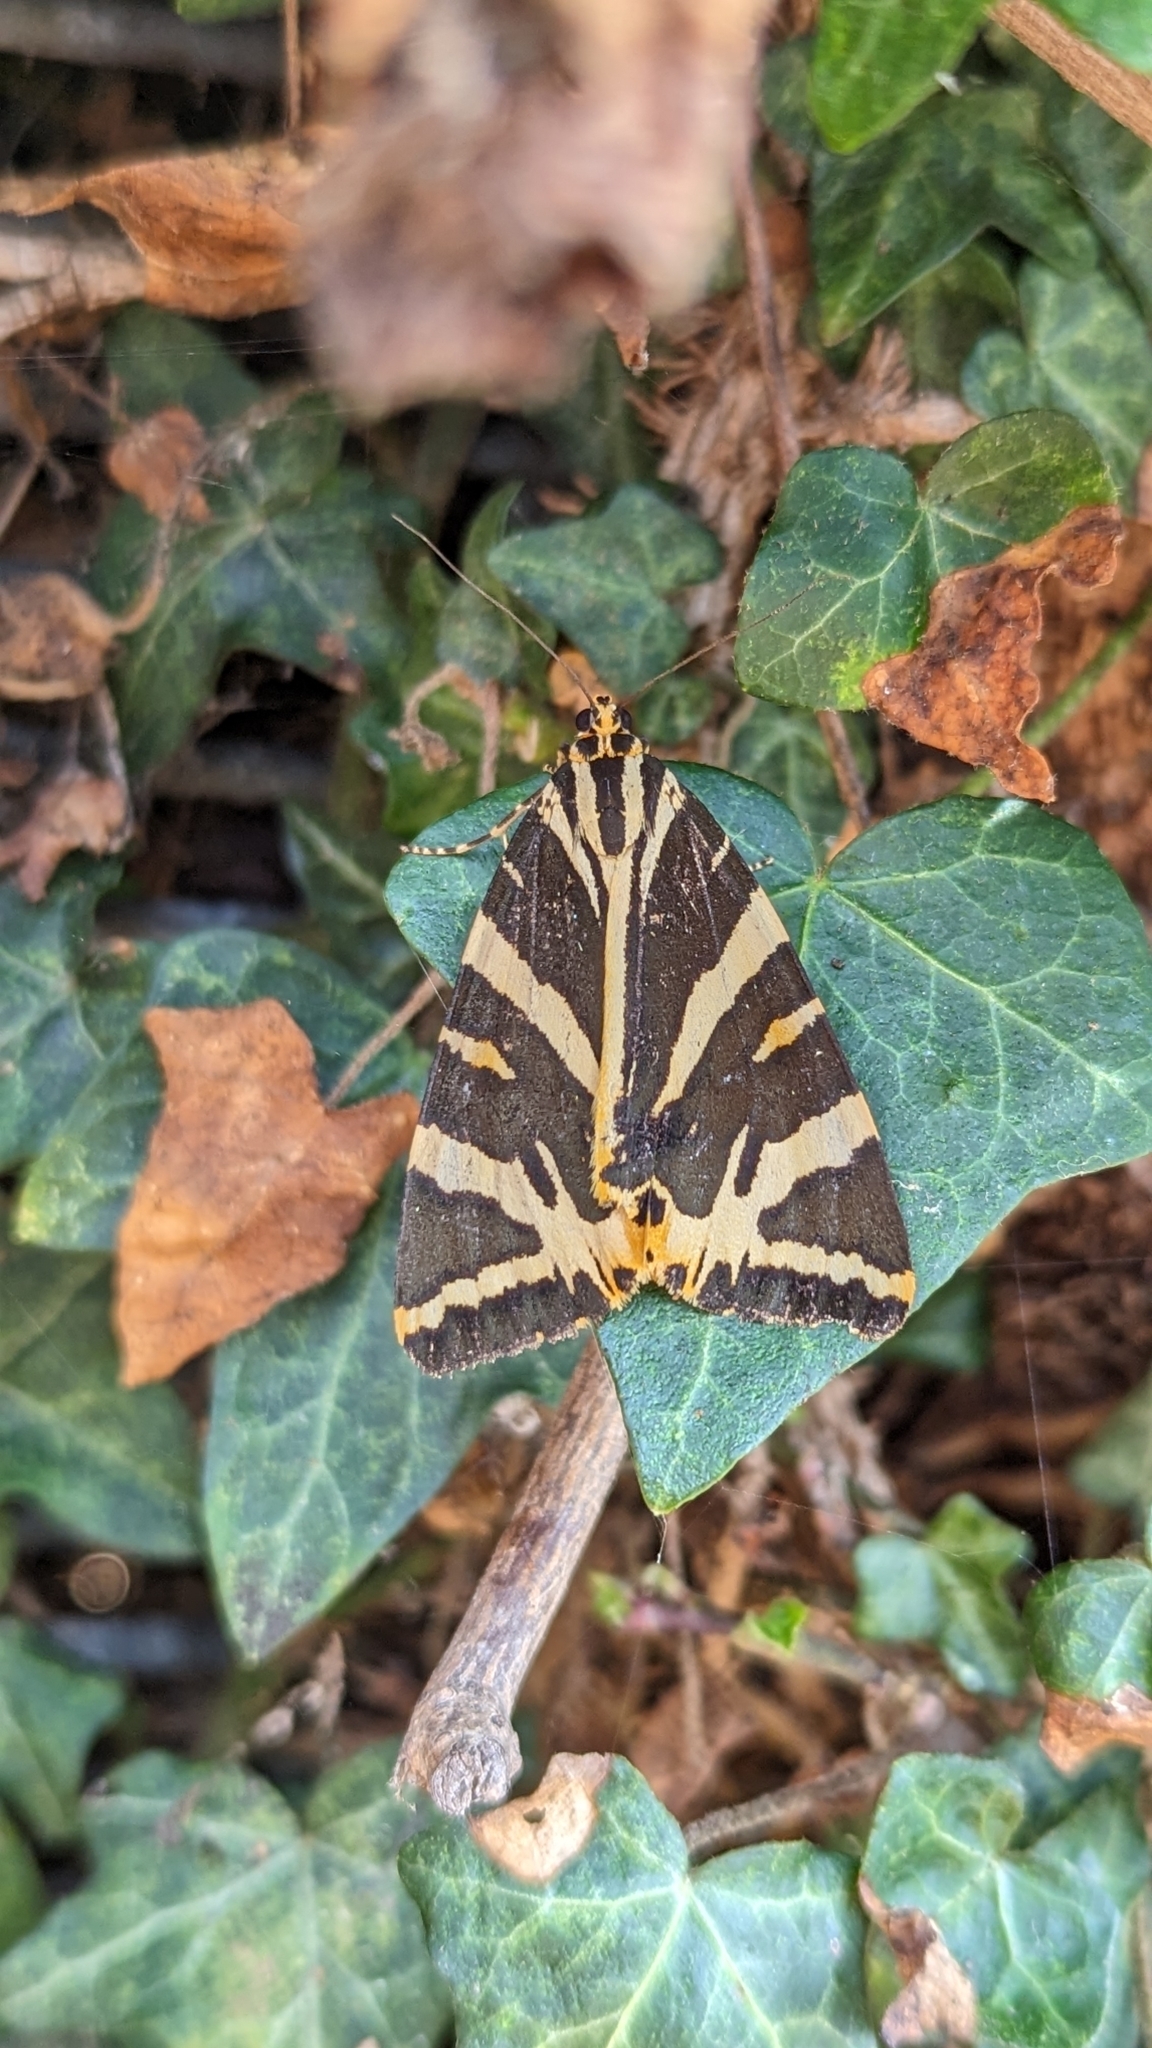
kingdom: Animalia
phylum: Arthropoda
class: Insecta
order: Lepidoptera
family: Erebidae
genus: Euplagia
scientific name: Euplagia quadripunctaria
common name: Jersey tiger
